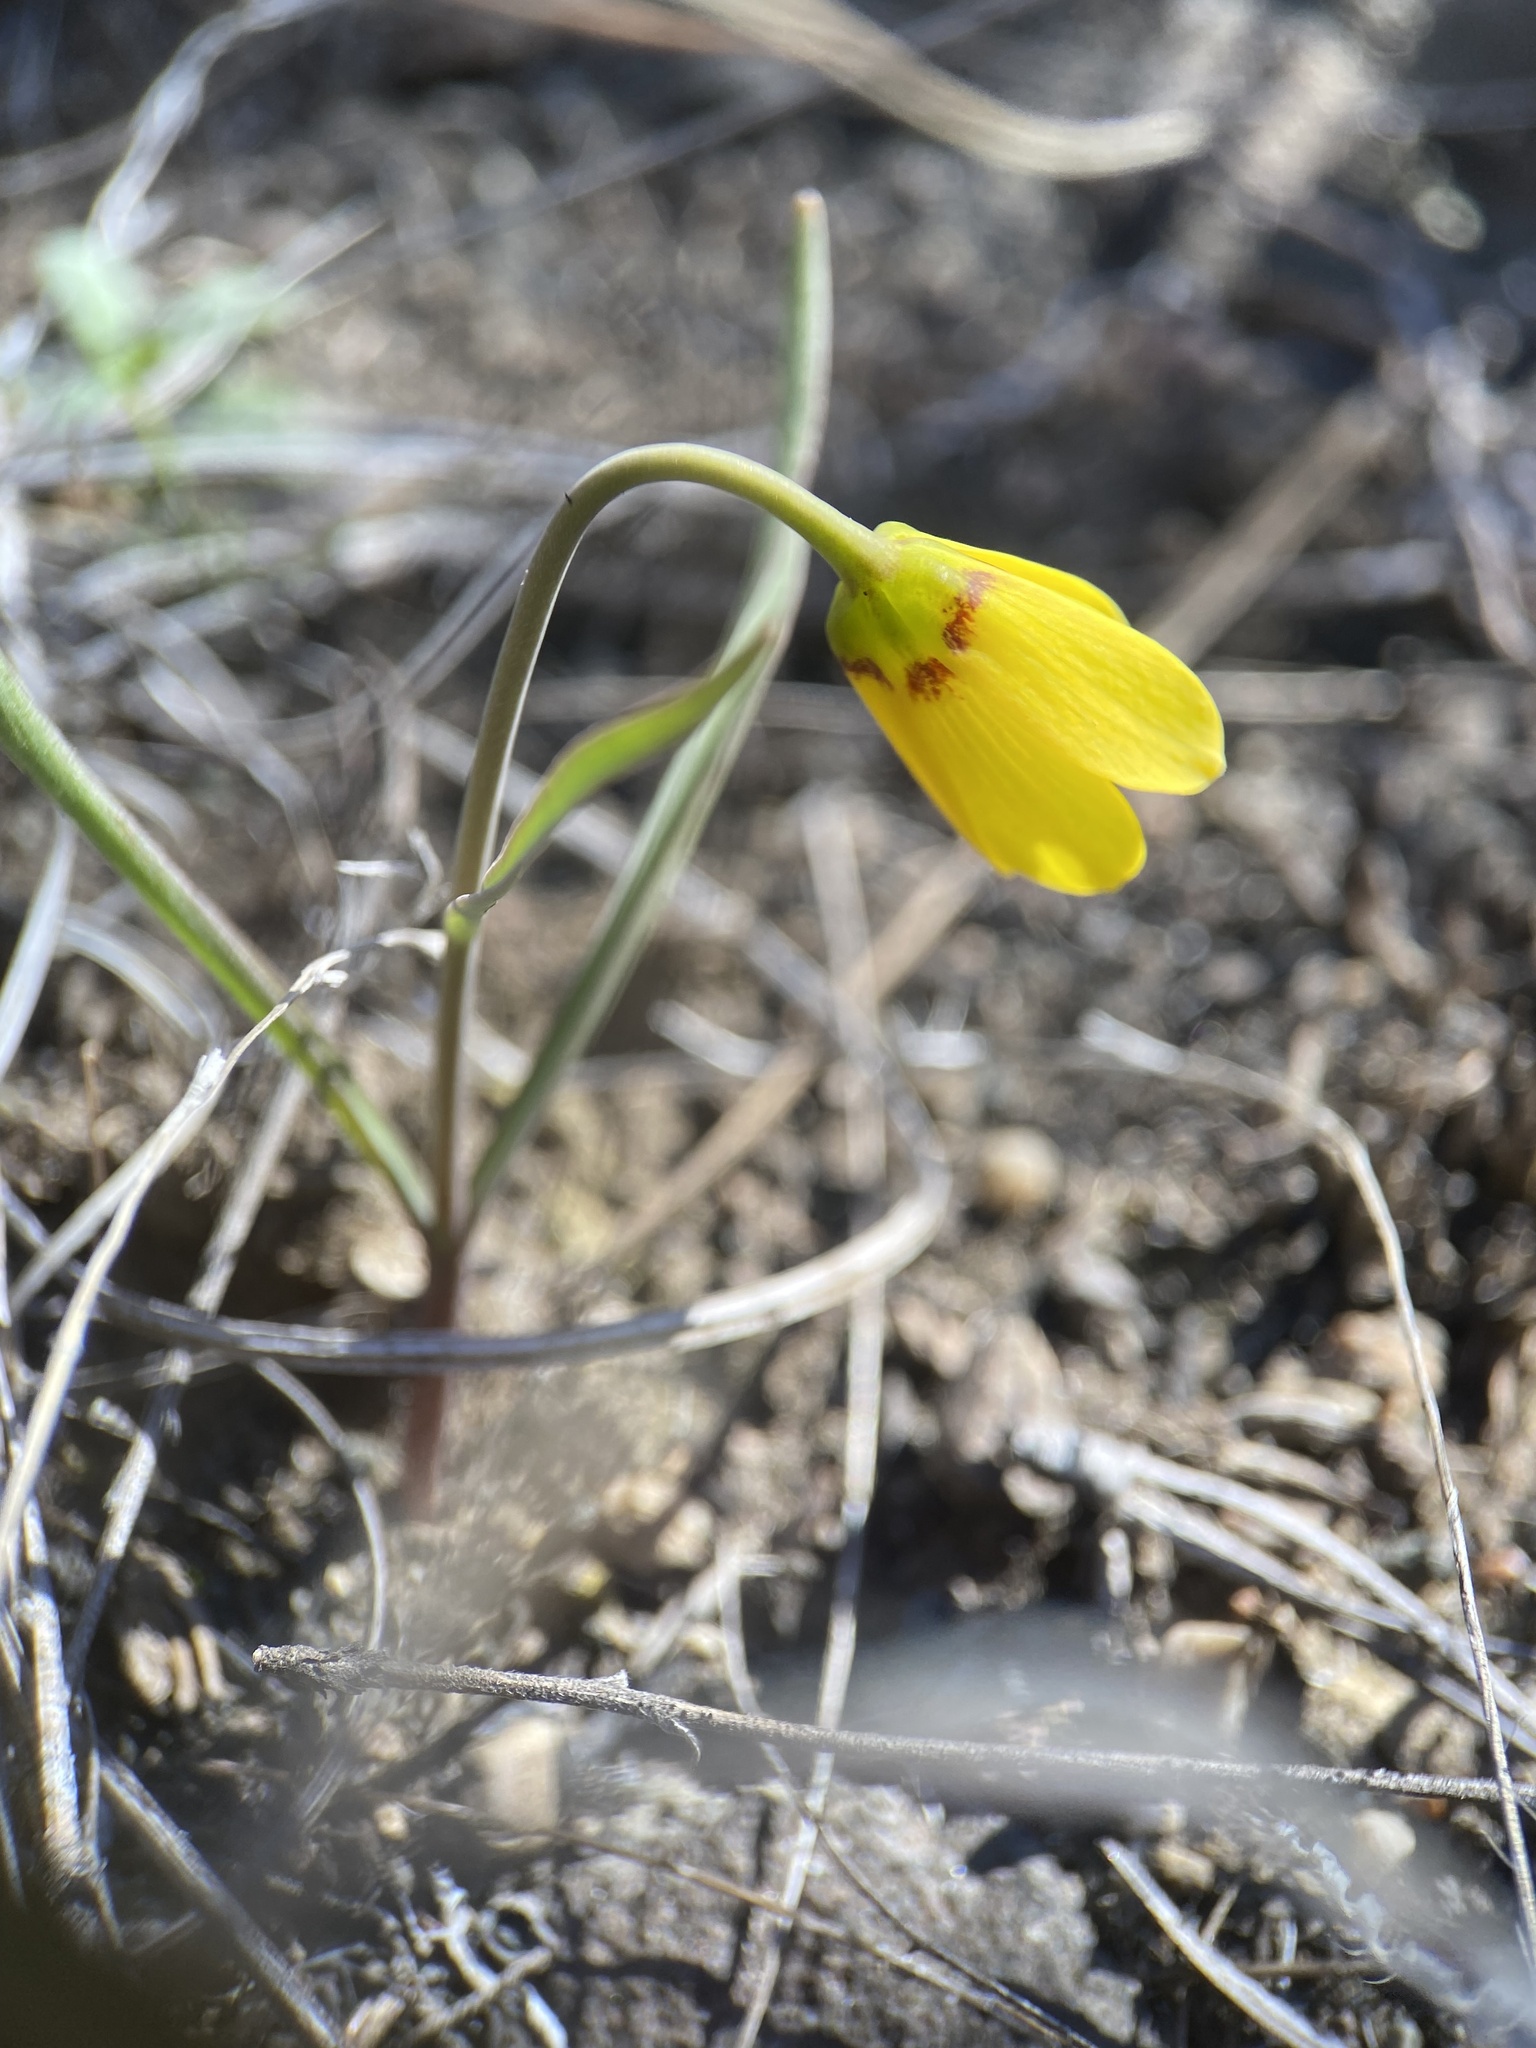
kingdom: Plantae
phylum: Tracheophyta
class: Liliopsida
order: Liliales
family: Liliaceae
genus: Fritillaria
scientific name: Fritillaria pudica
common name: Yellow fritillary
